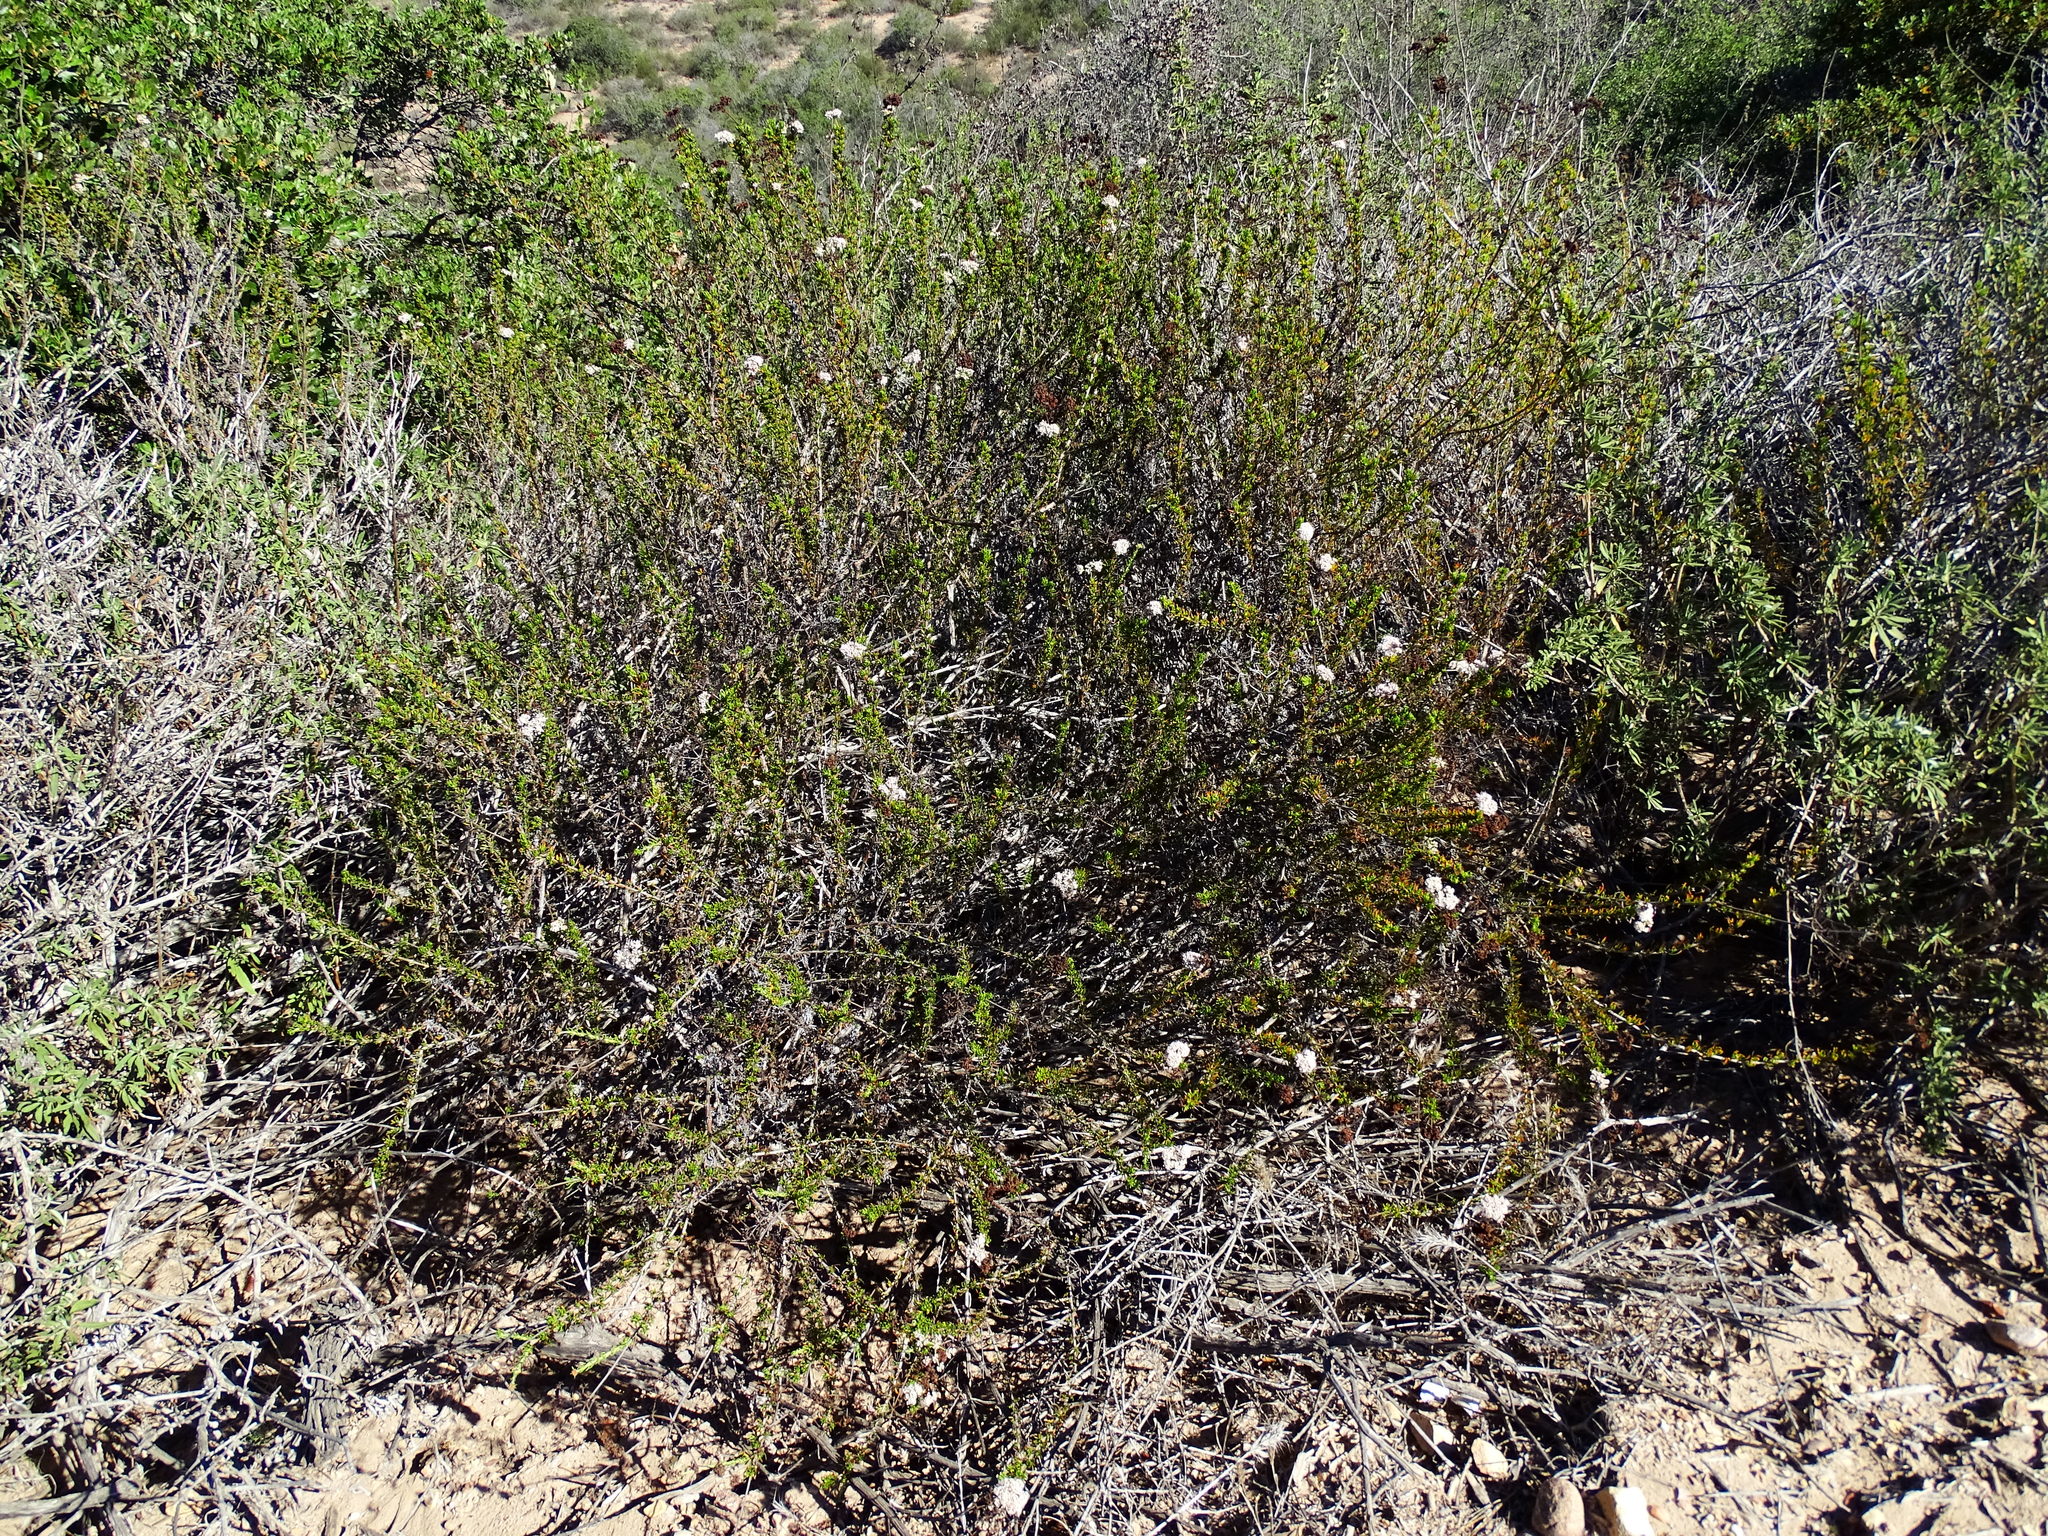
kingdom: Plantae
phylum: Tracheophyta
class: Magnoliopsida
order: Caryophyllales
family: Polygonaceae
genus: Eriogonum
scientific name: Eriogonum fasciculatum
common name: California wild buckwheat
